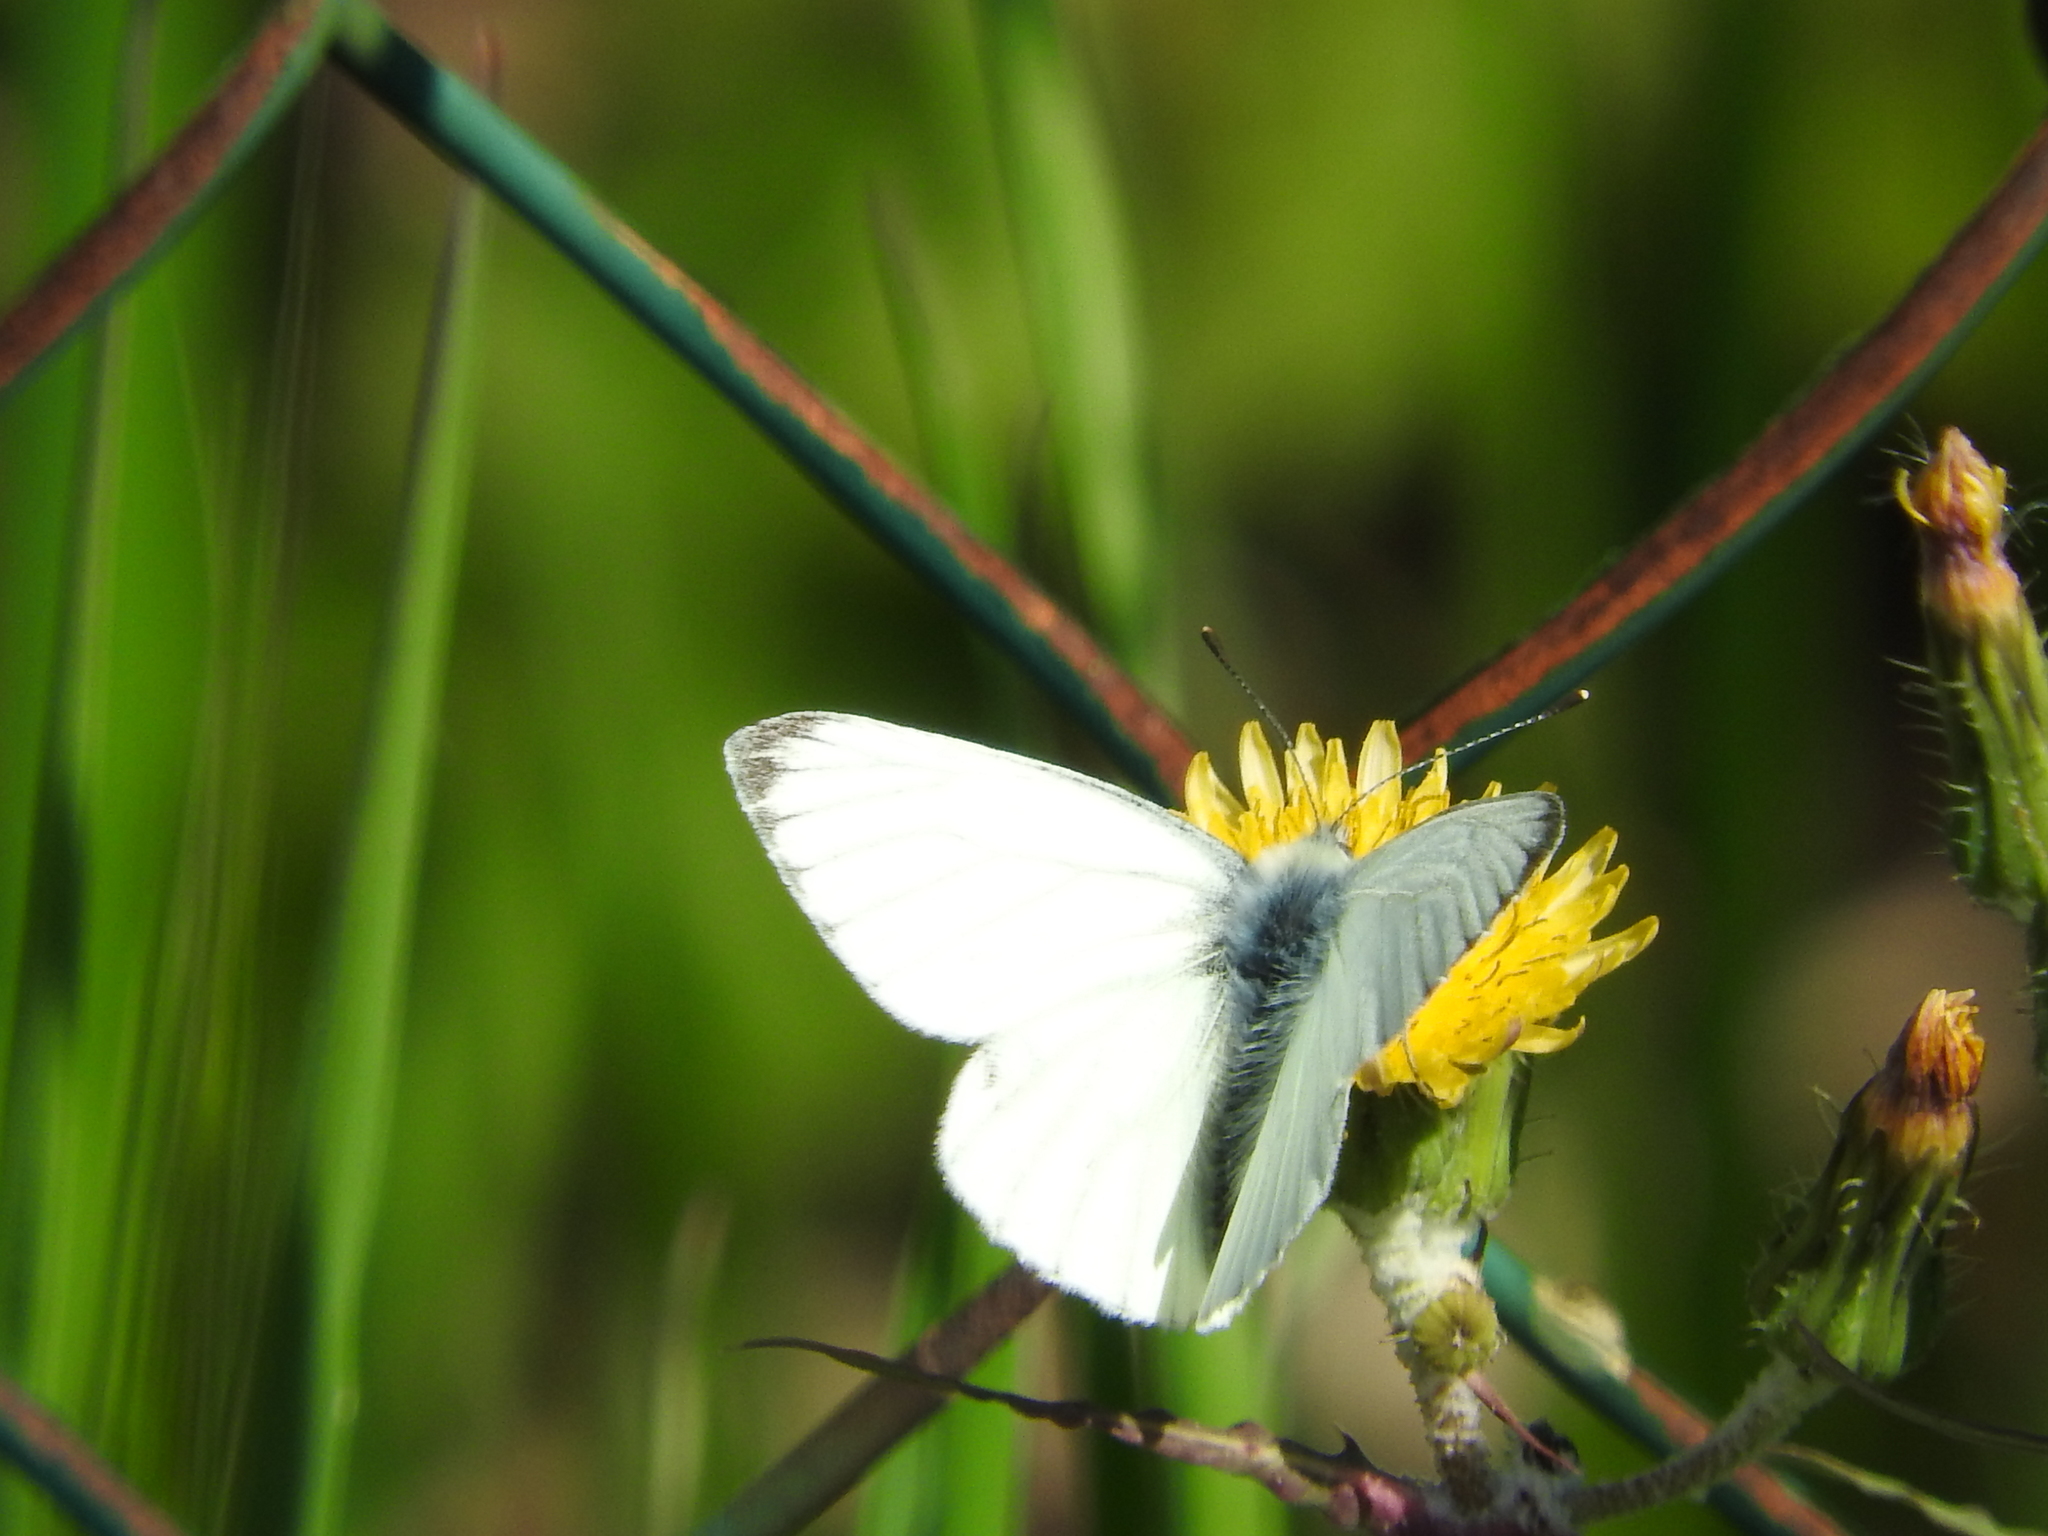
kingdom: Animalia
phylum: Arthropoda
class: Insecta
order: Lepidoptera
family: Pieridae
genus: Pieris
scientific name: Pieris napi
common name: Green-veined white
